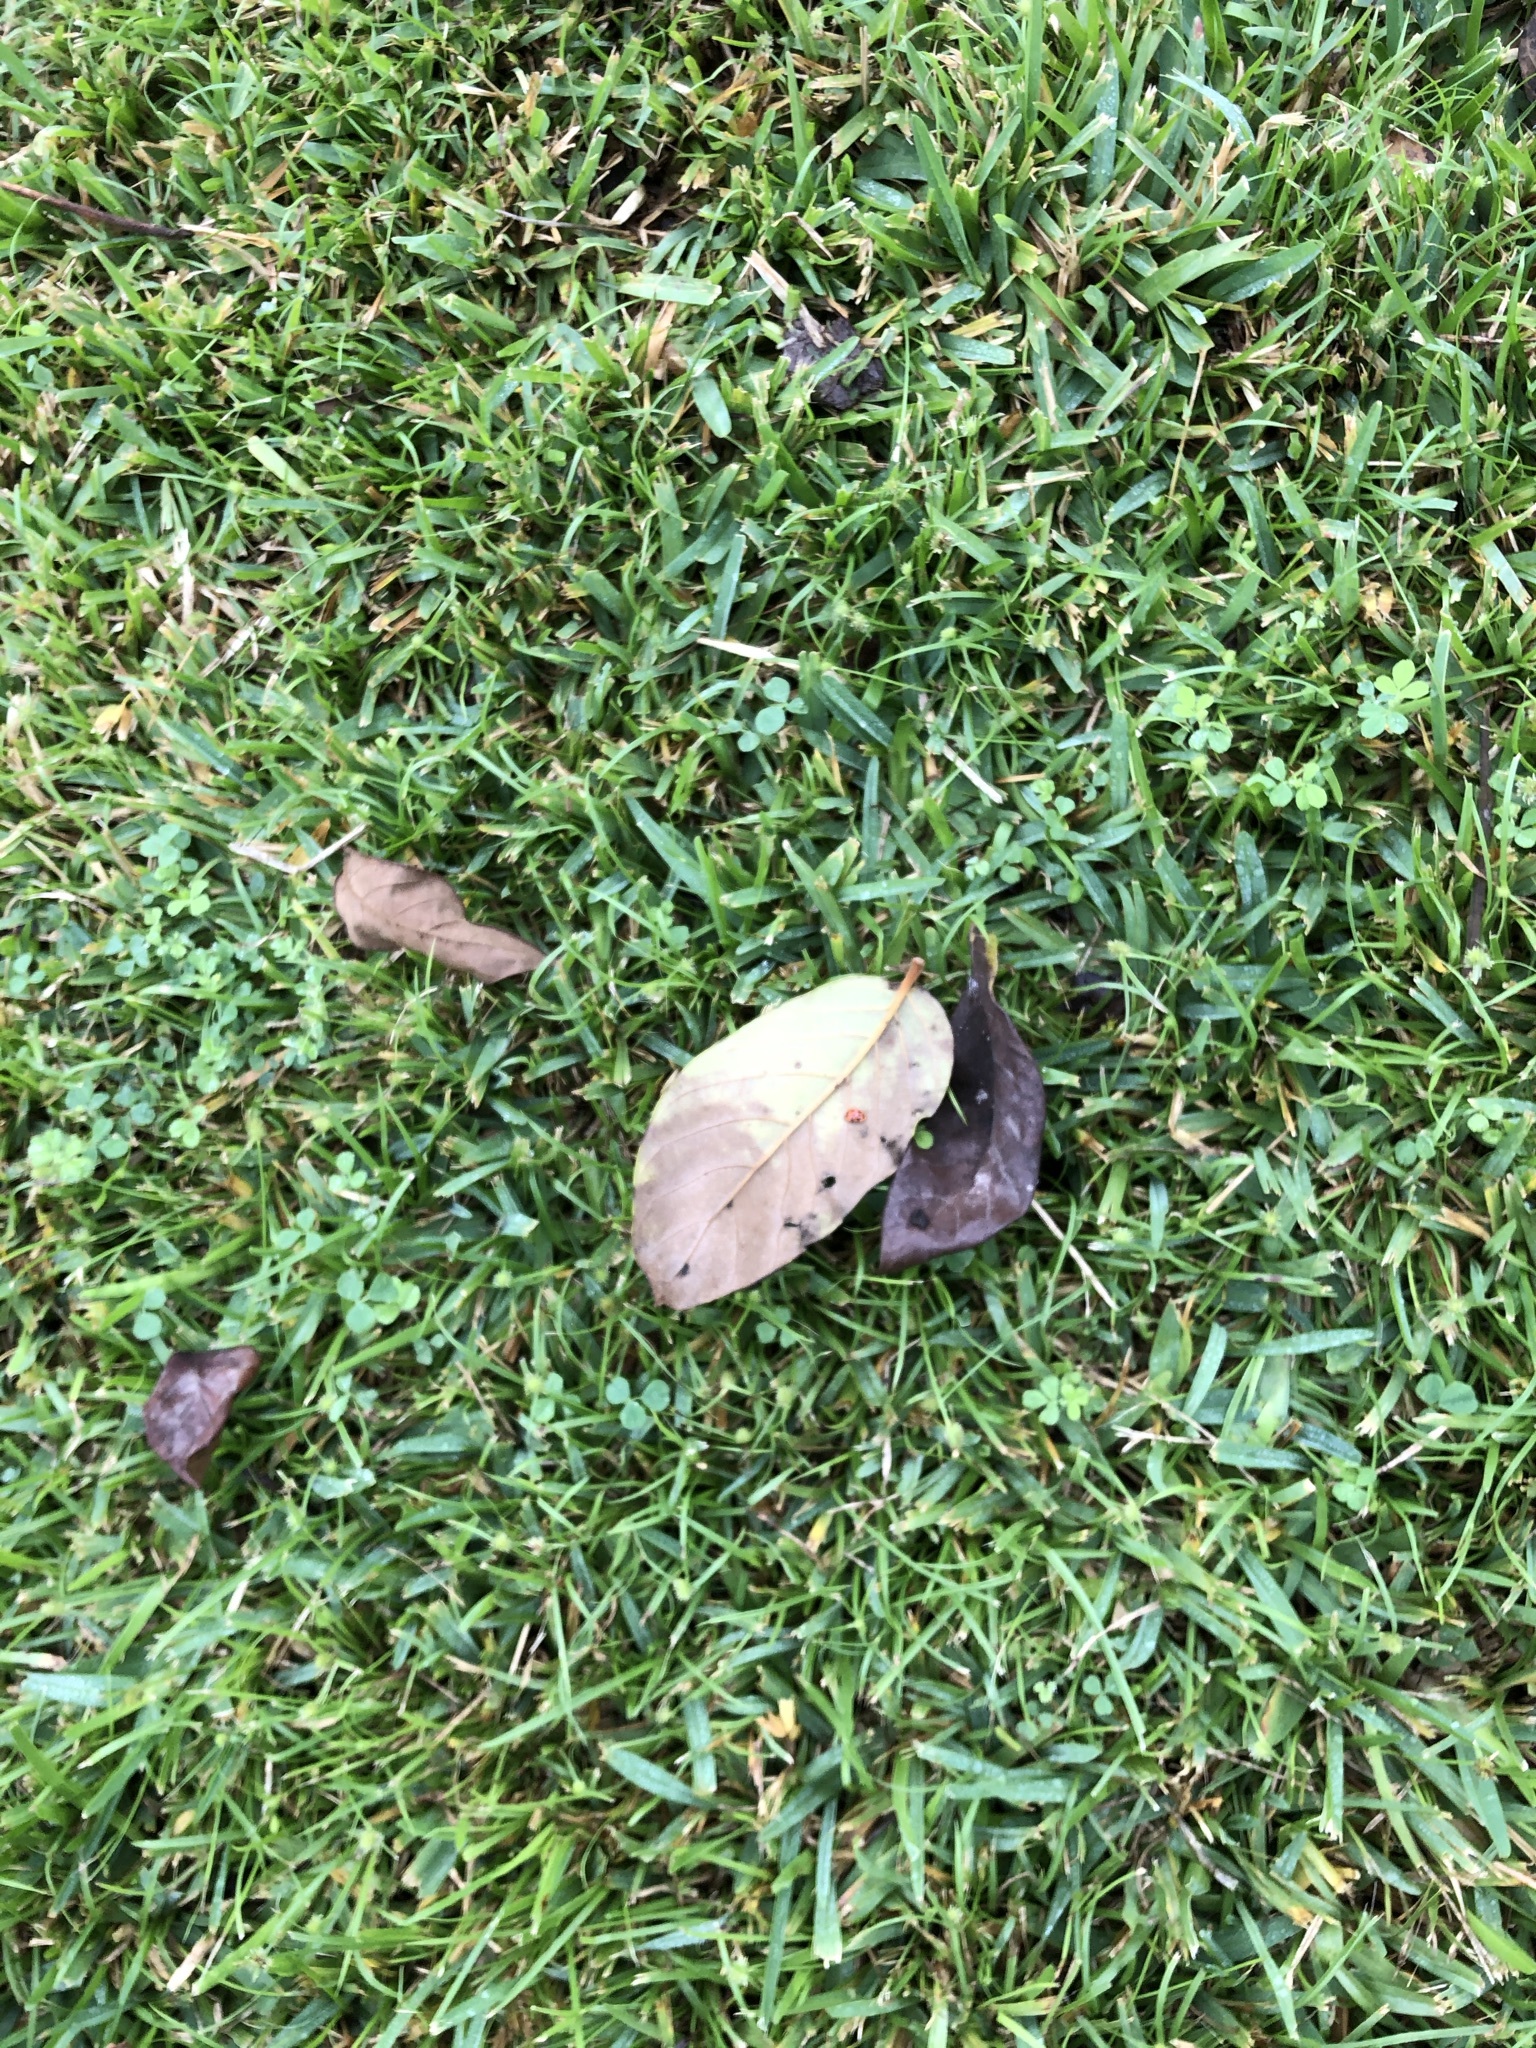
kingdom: Animalia
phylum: Arthropoda
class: Insecta
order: Coleoptera
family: Coccinellidae
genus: Harmonia
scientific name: Harmonia axyridis
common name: Harlequin ladybird
